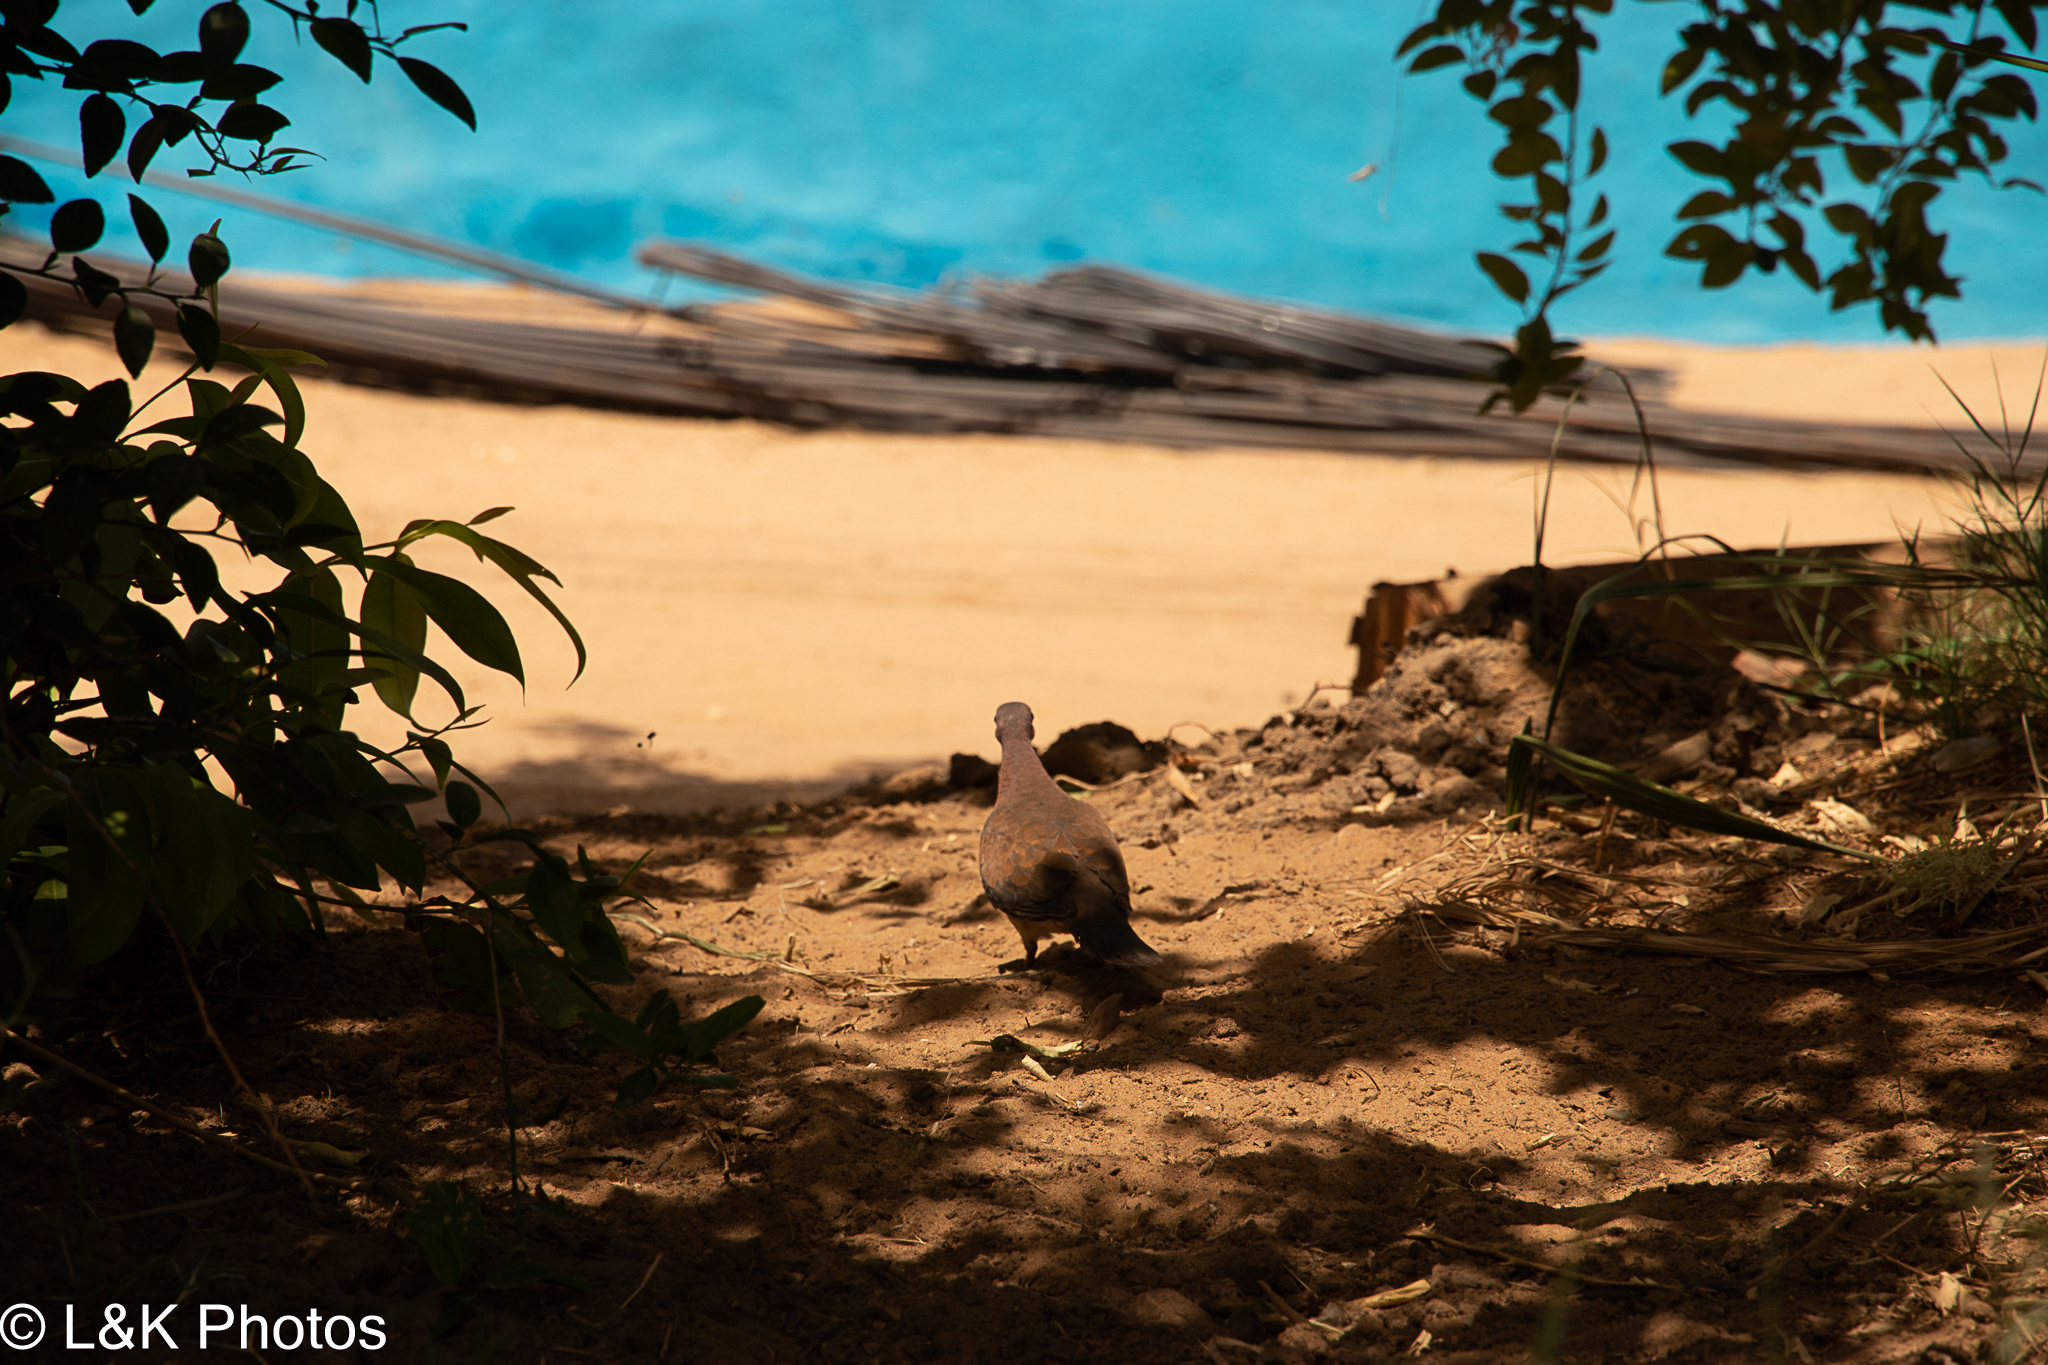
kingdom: Animalia
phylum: Chordata
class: Aves
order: Columbiformes
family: Columbidae
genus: Spilopelia
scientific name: Spilopelia senegalensis
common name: Laughing dove
